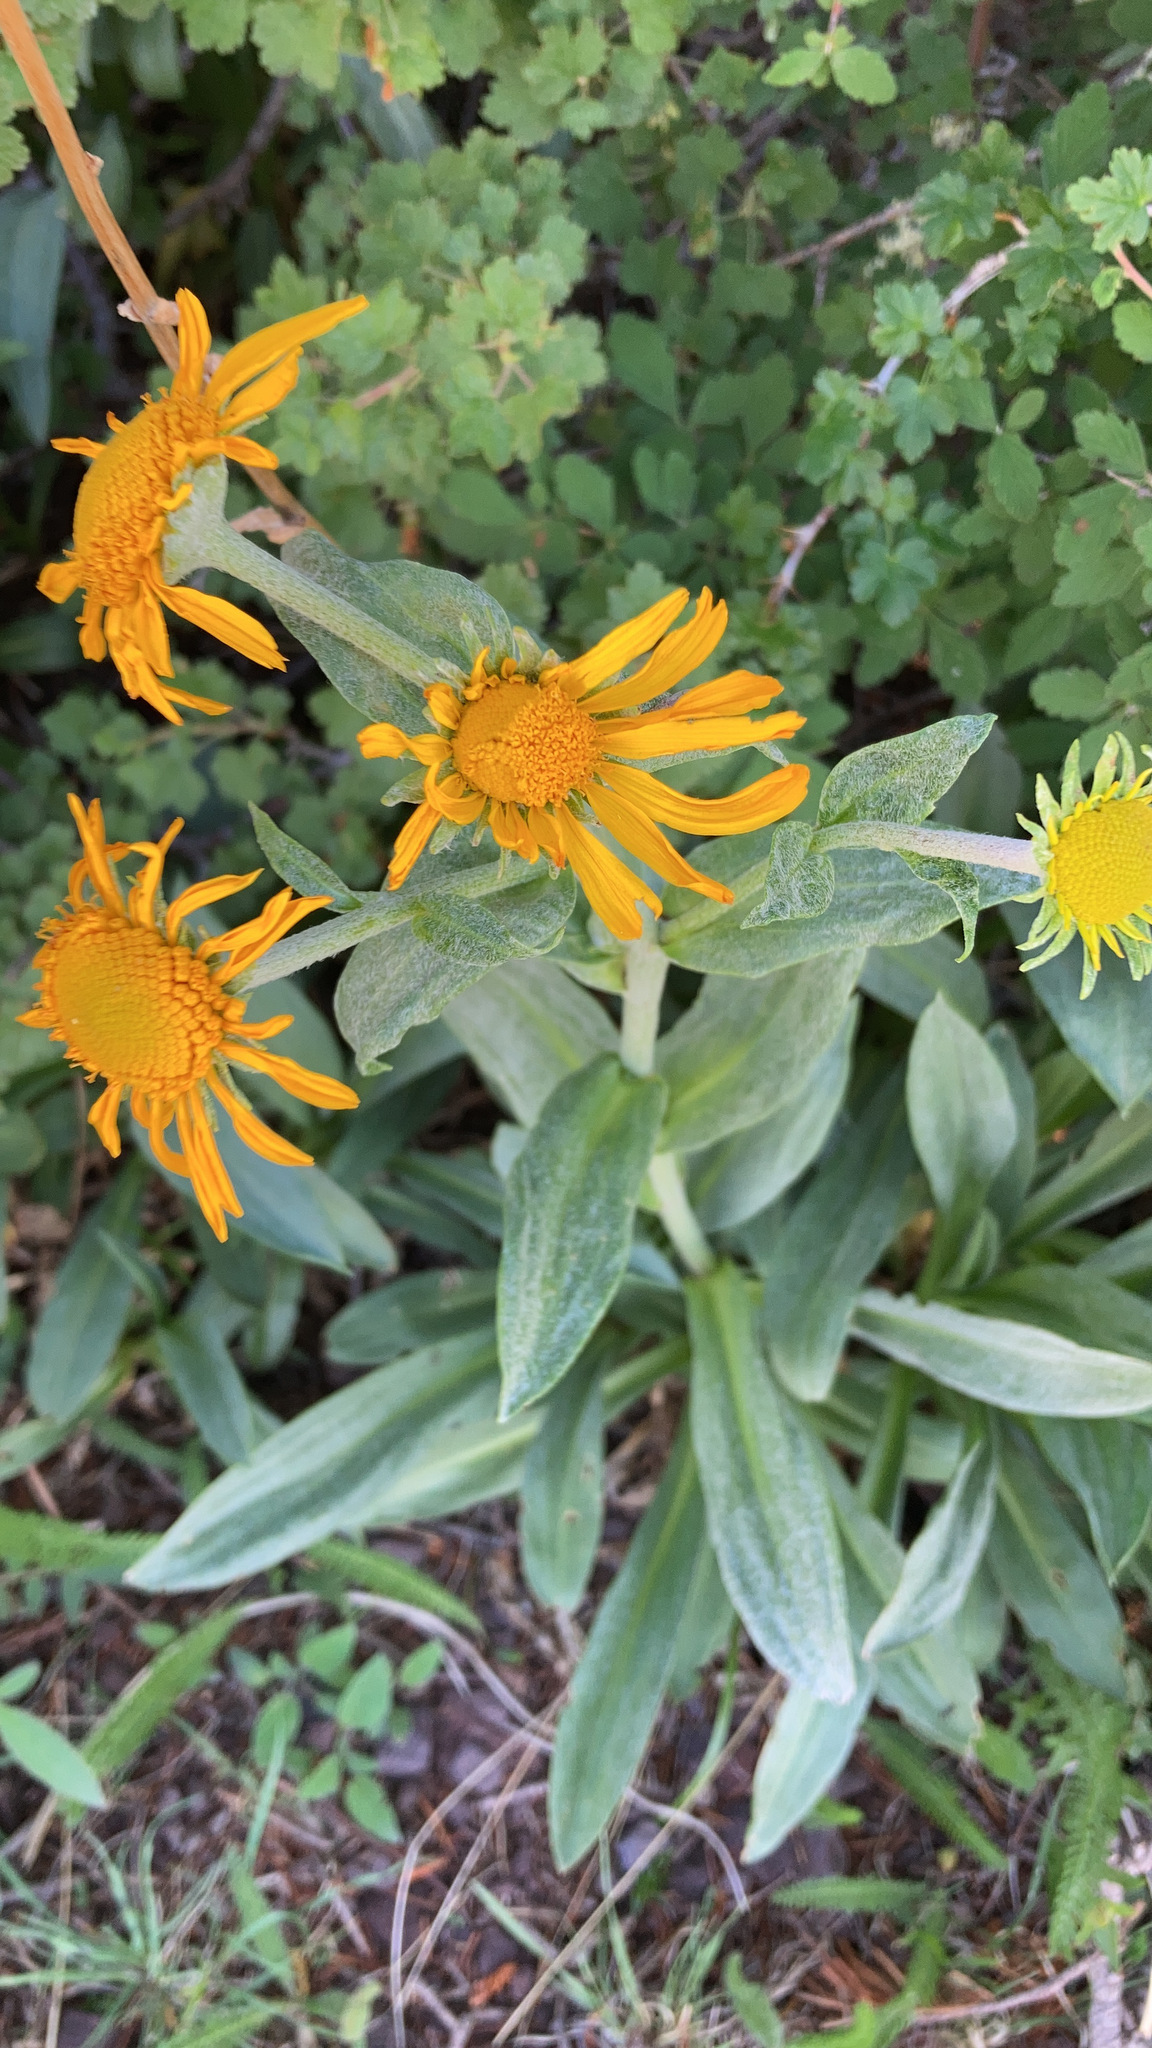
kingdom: Plantae
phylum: Tracheophyta
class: Magnoliopsida
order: Asterales
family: Asteraceae
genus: Hymenoxys
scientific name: Hymenoxys hoopesii
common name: Orange-sneezeweed
